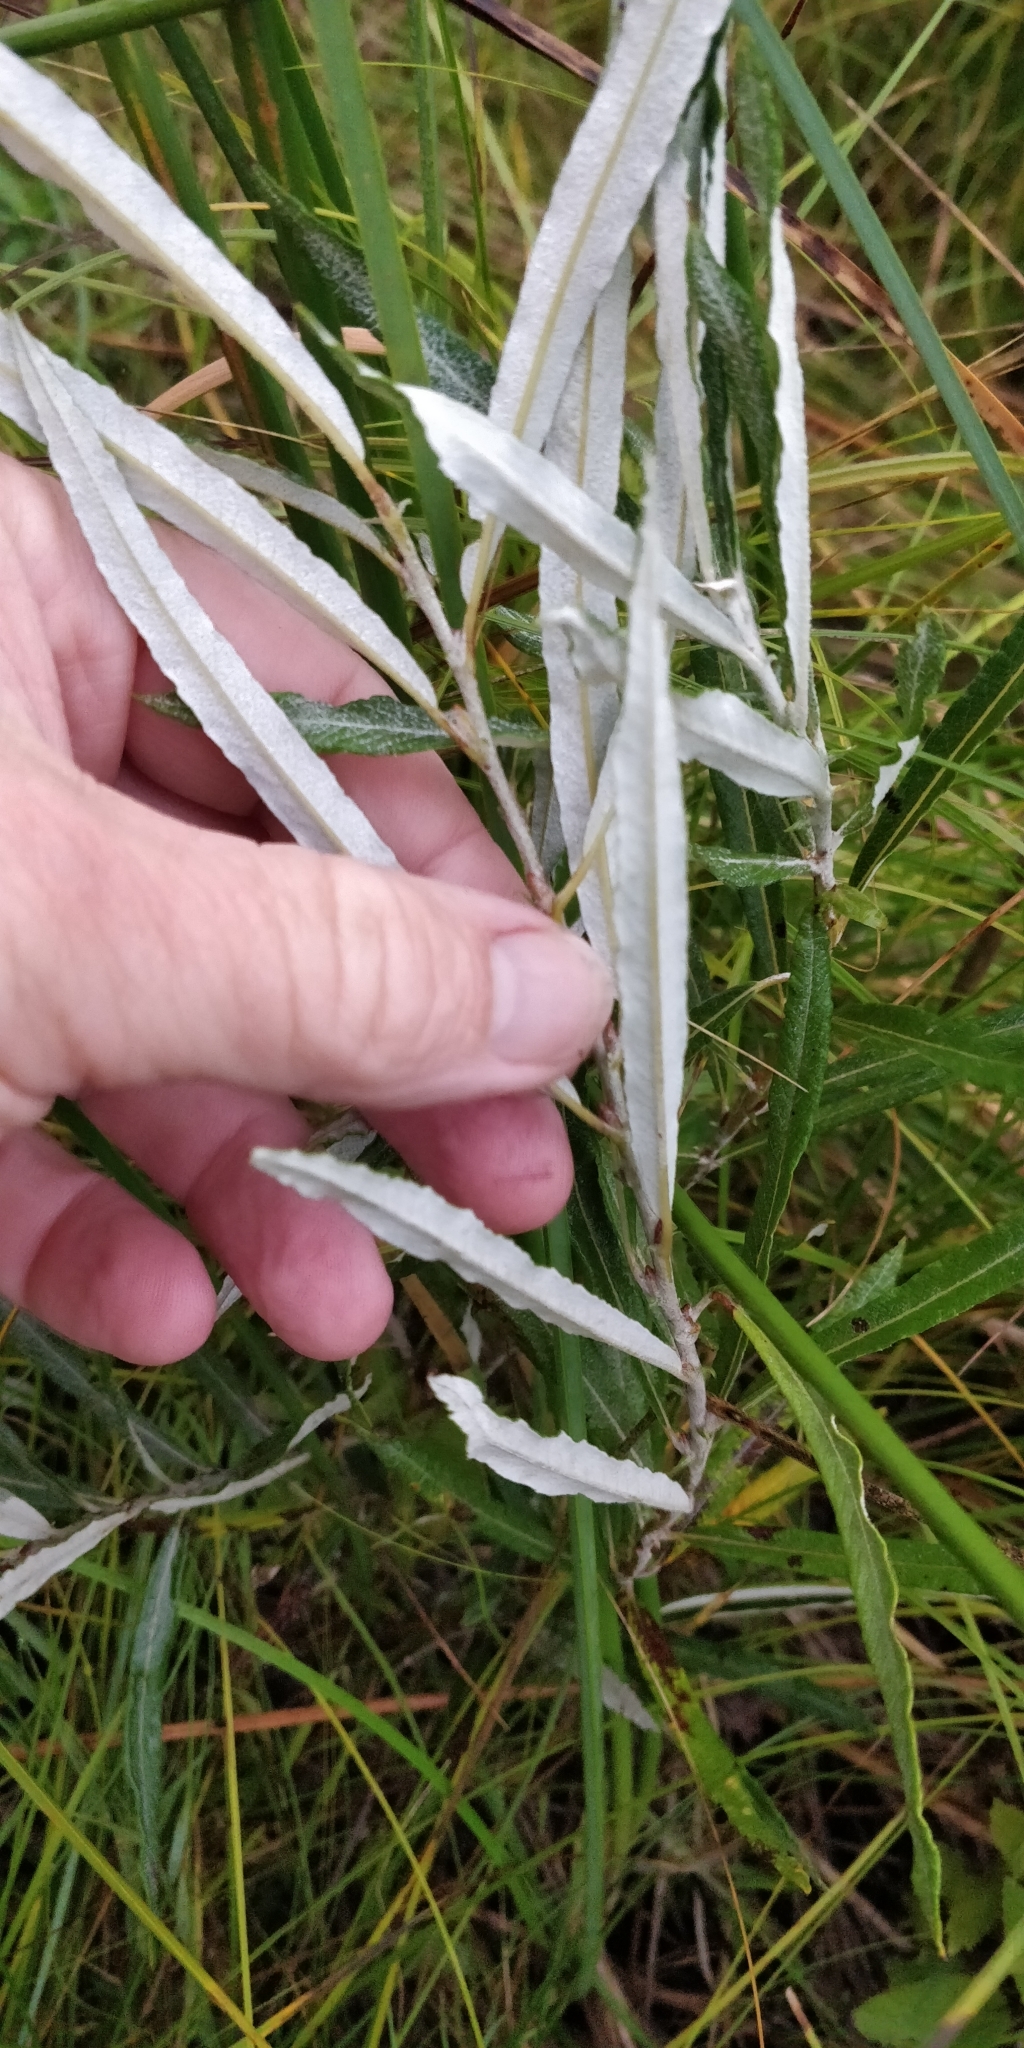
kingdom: Plantae
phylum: Tracheophyta
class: Magnoliopsida
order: Malpighiales
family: Salicaceae
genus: Salix
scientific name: Salix candida
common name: Hoary willow
